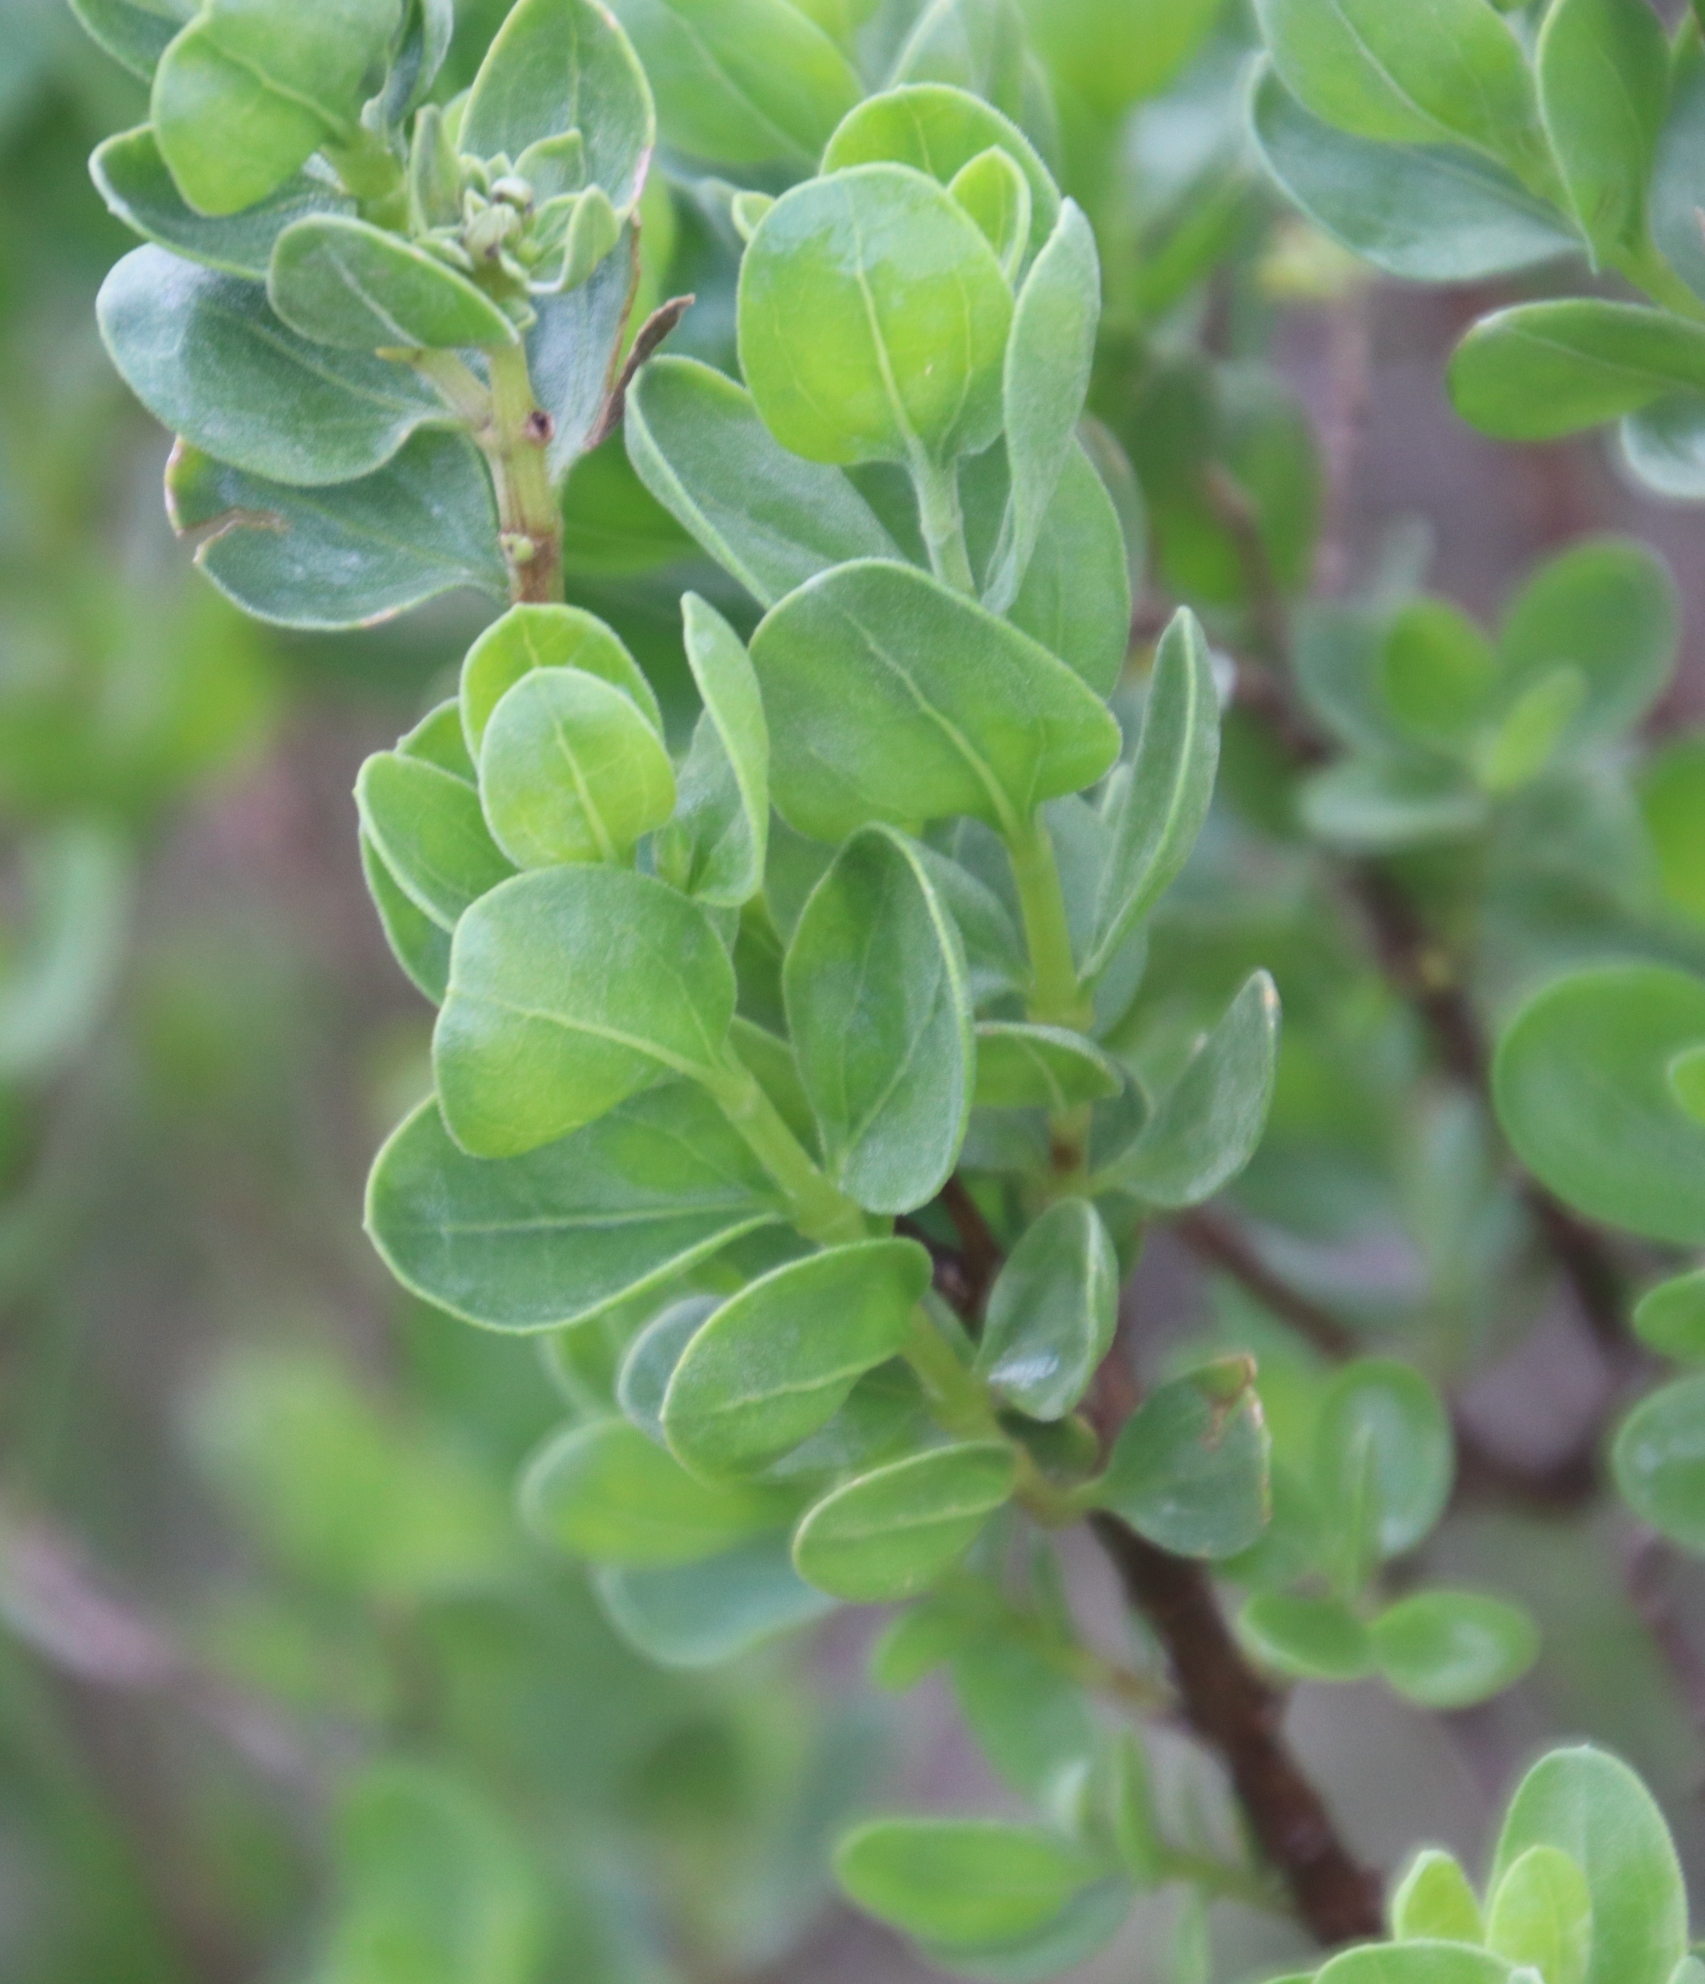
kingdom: Plantae
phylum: Tracheophyta
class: Magnoliopsida
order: Asterales
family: Asteraceae
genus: Pteronia
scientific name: Pteronia divaricata
